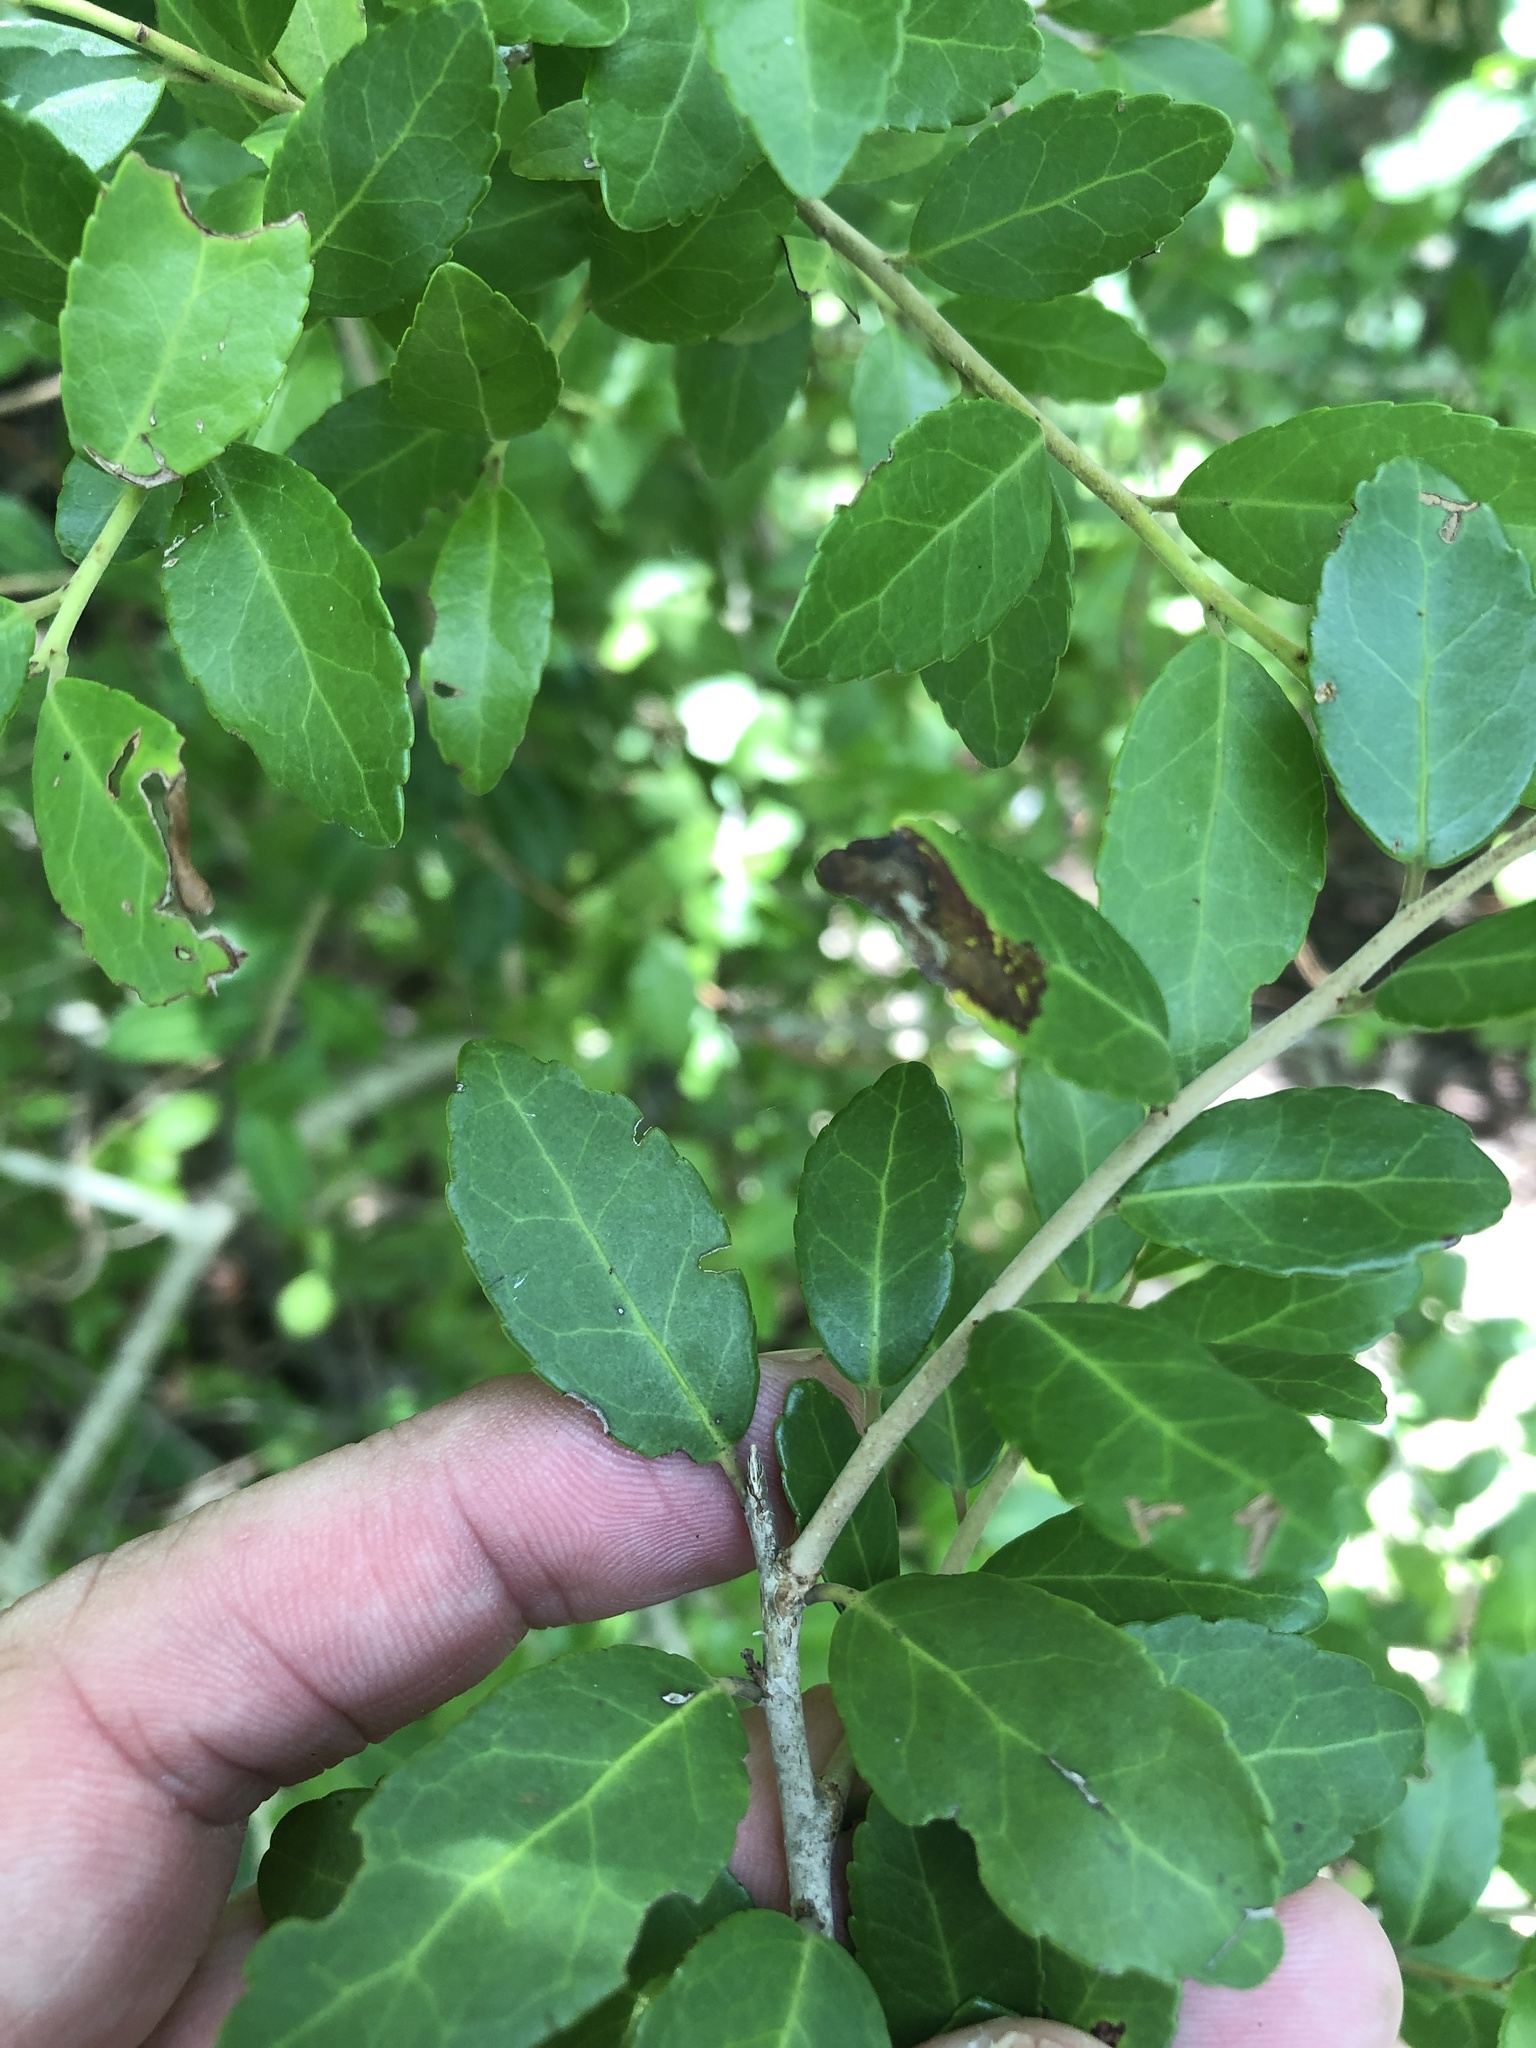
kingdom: Plantae
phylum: Tracheophyta
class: Magnoliopsida
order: Aquifoliales
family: Aquifoliaceae
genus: Ilex
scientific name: Ilex vomitoria
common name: Yaupon holly
